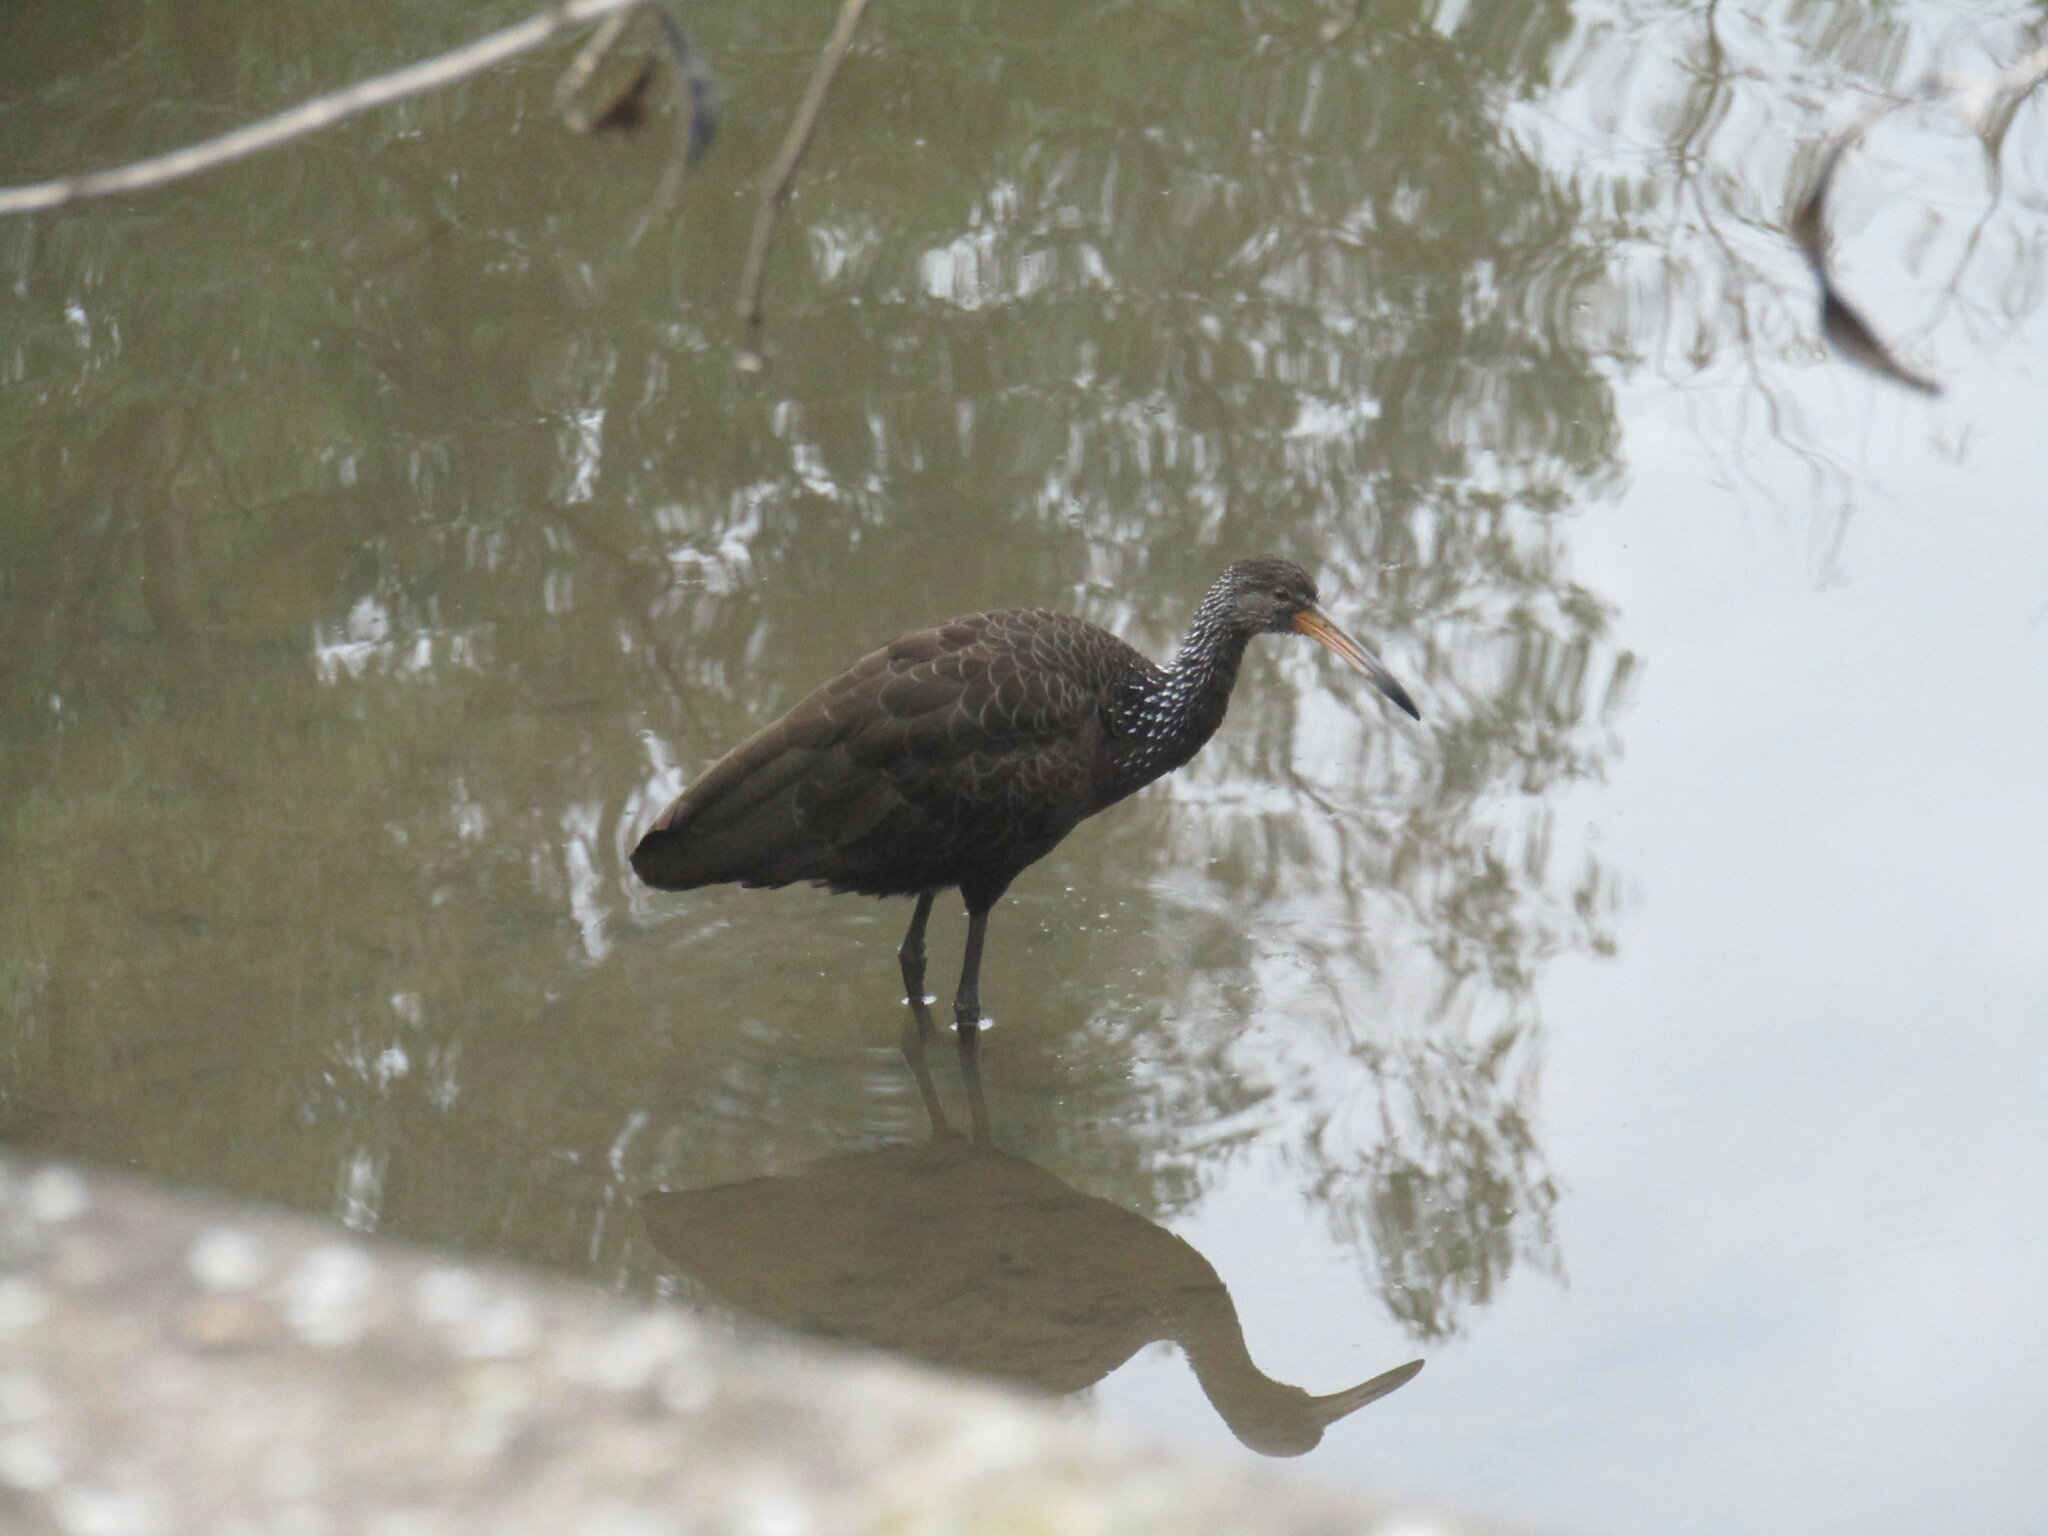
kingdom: Animalia
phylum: Chordata
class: Aves
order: Gruiformes
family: Aramidae
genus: Aramus
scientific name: Aramus guarauna
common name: Limpkin
